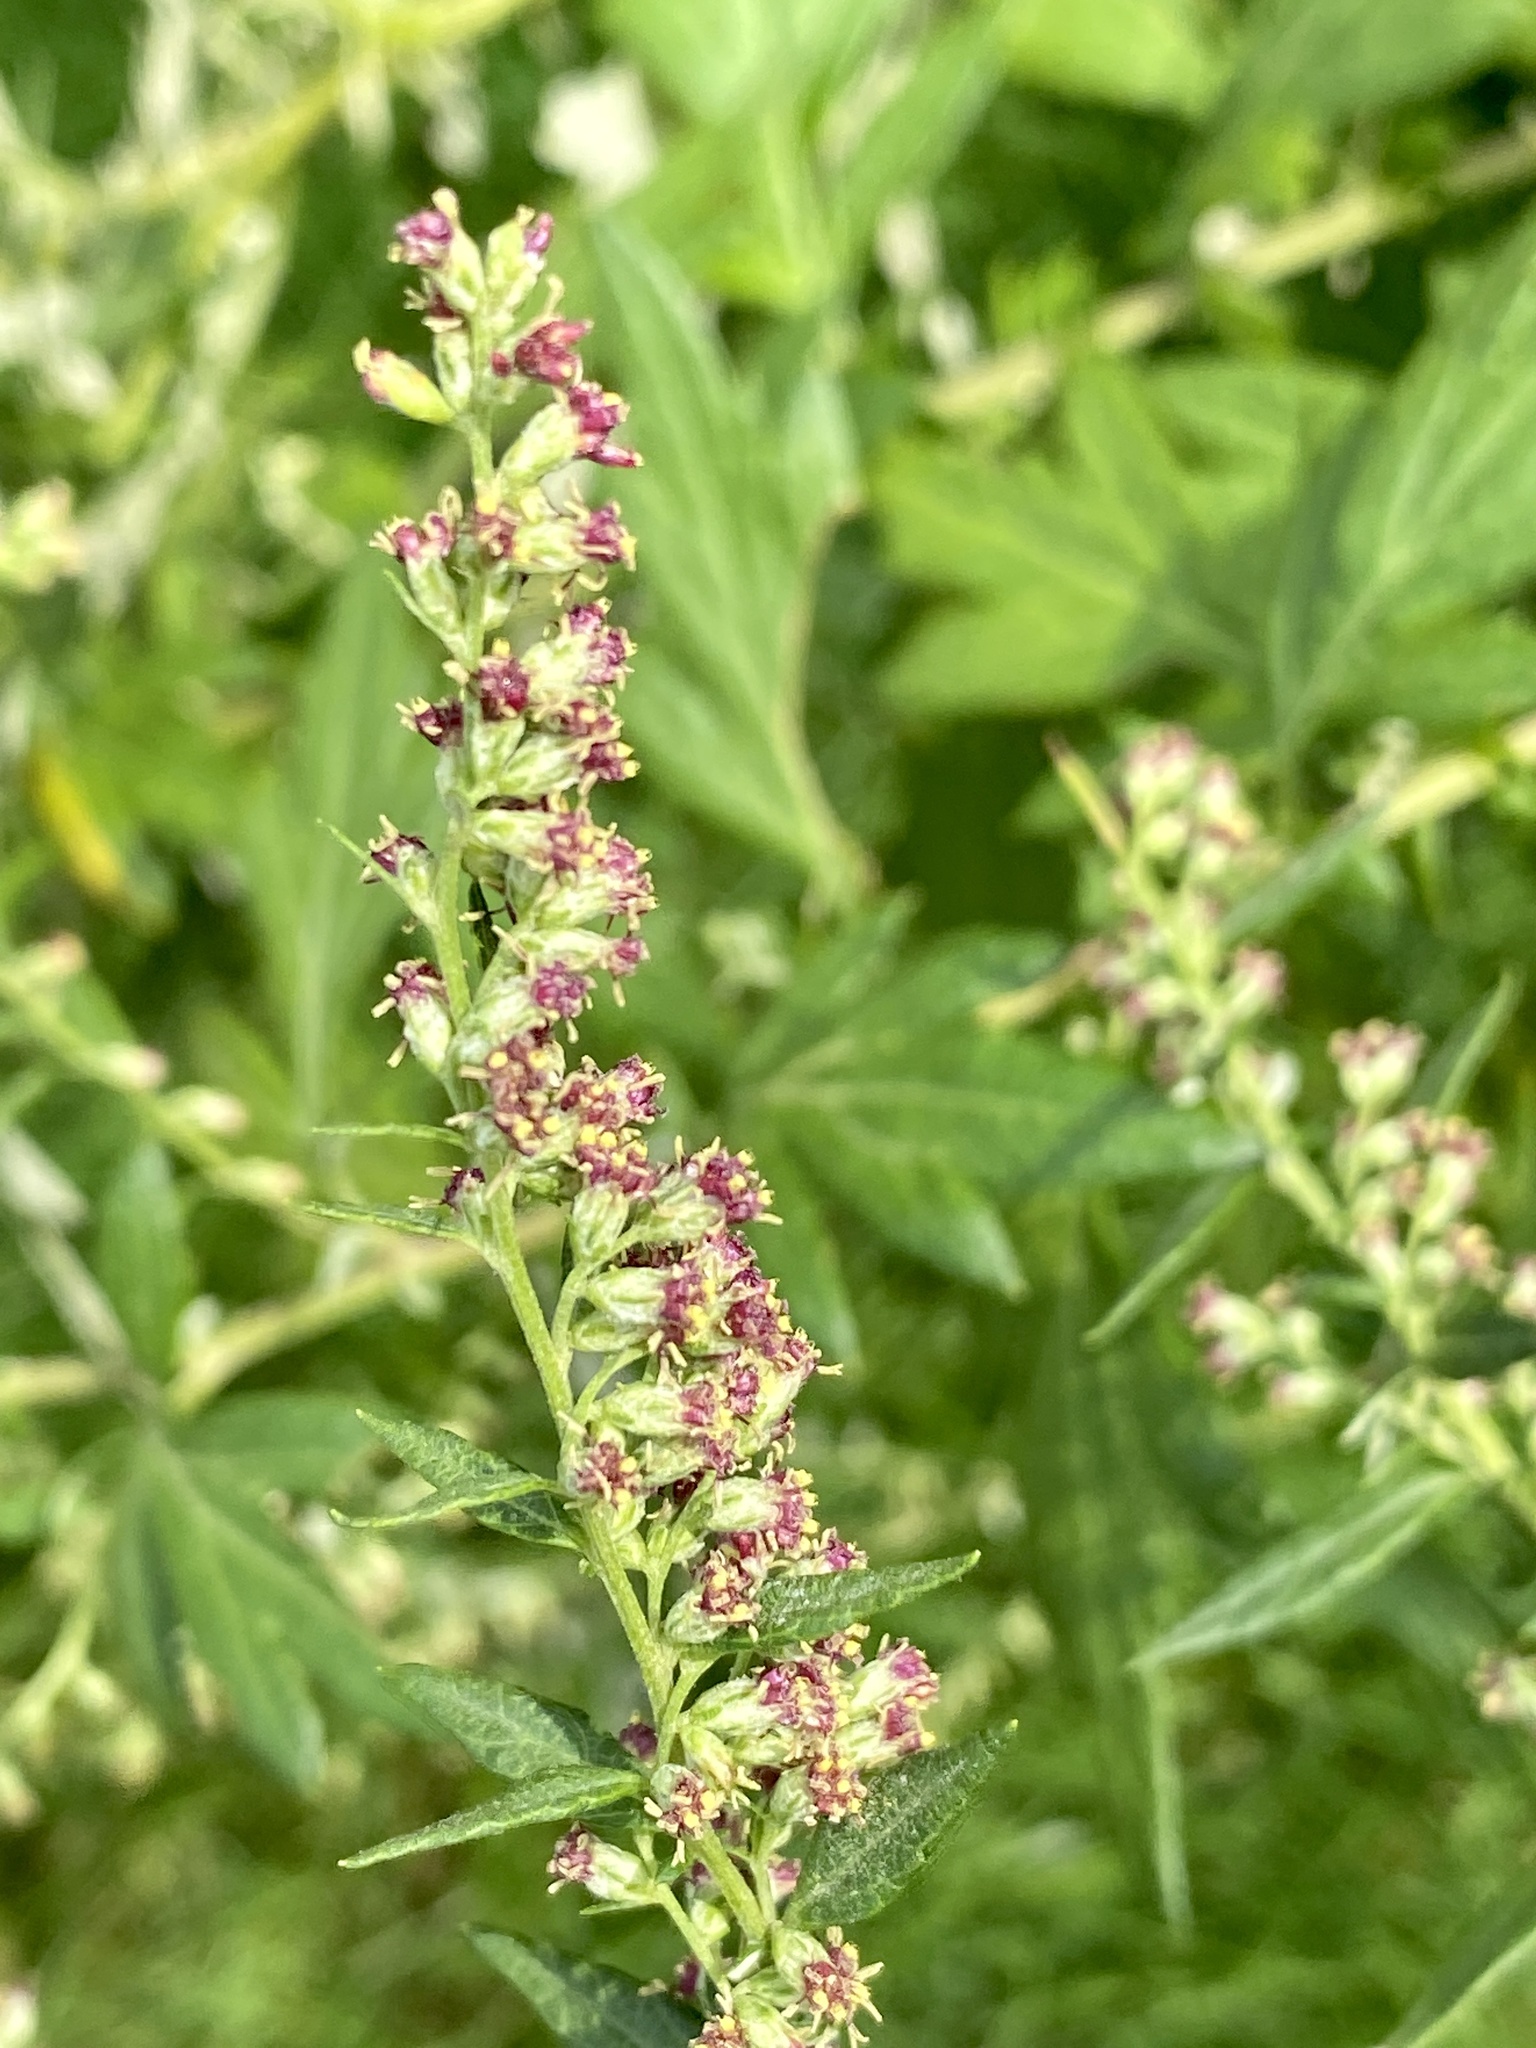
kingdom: Plantae
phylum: Tracheophyta
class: Magnoliopsida
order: Asterales
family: Asteraceae
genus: Artemisia
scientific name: Artemisia vulgaris
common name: Mugwort
